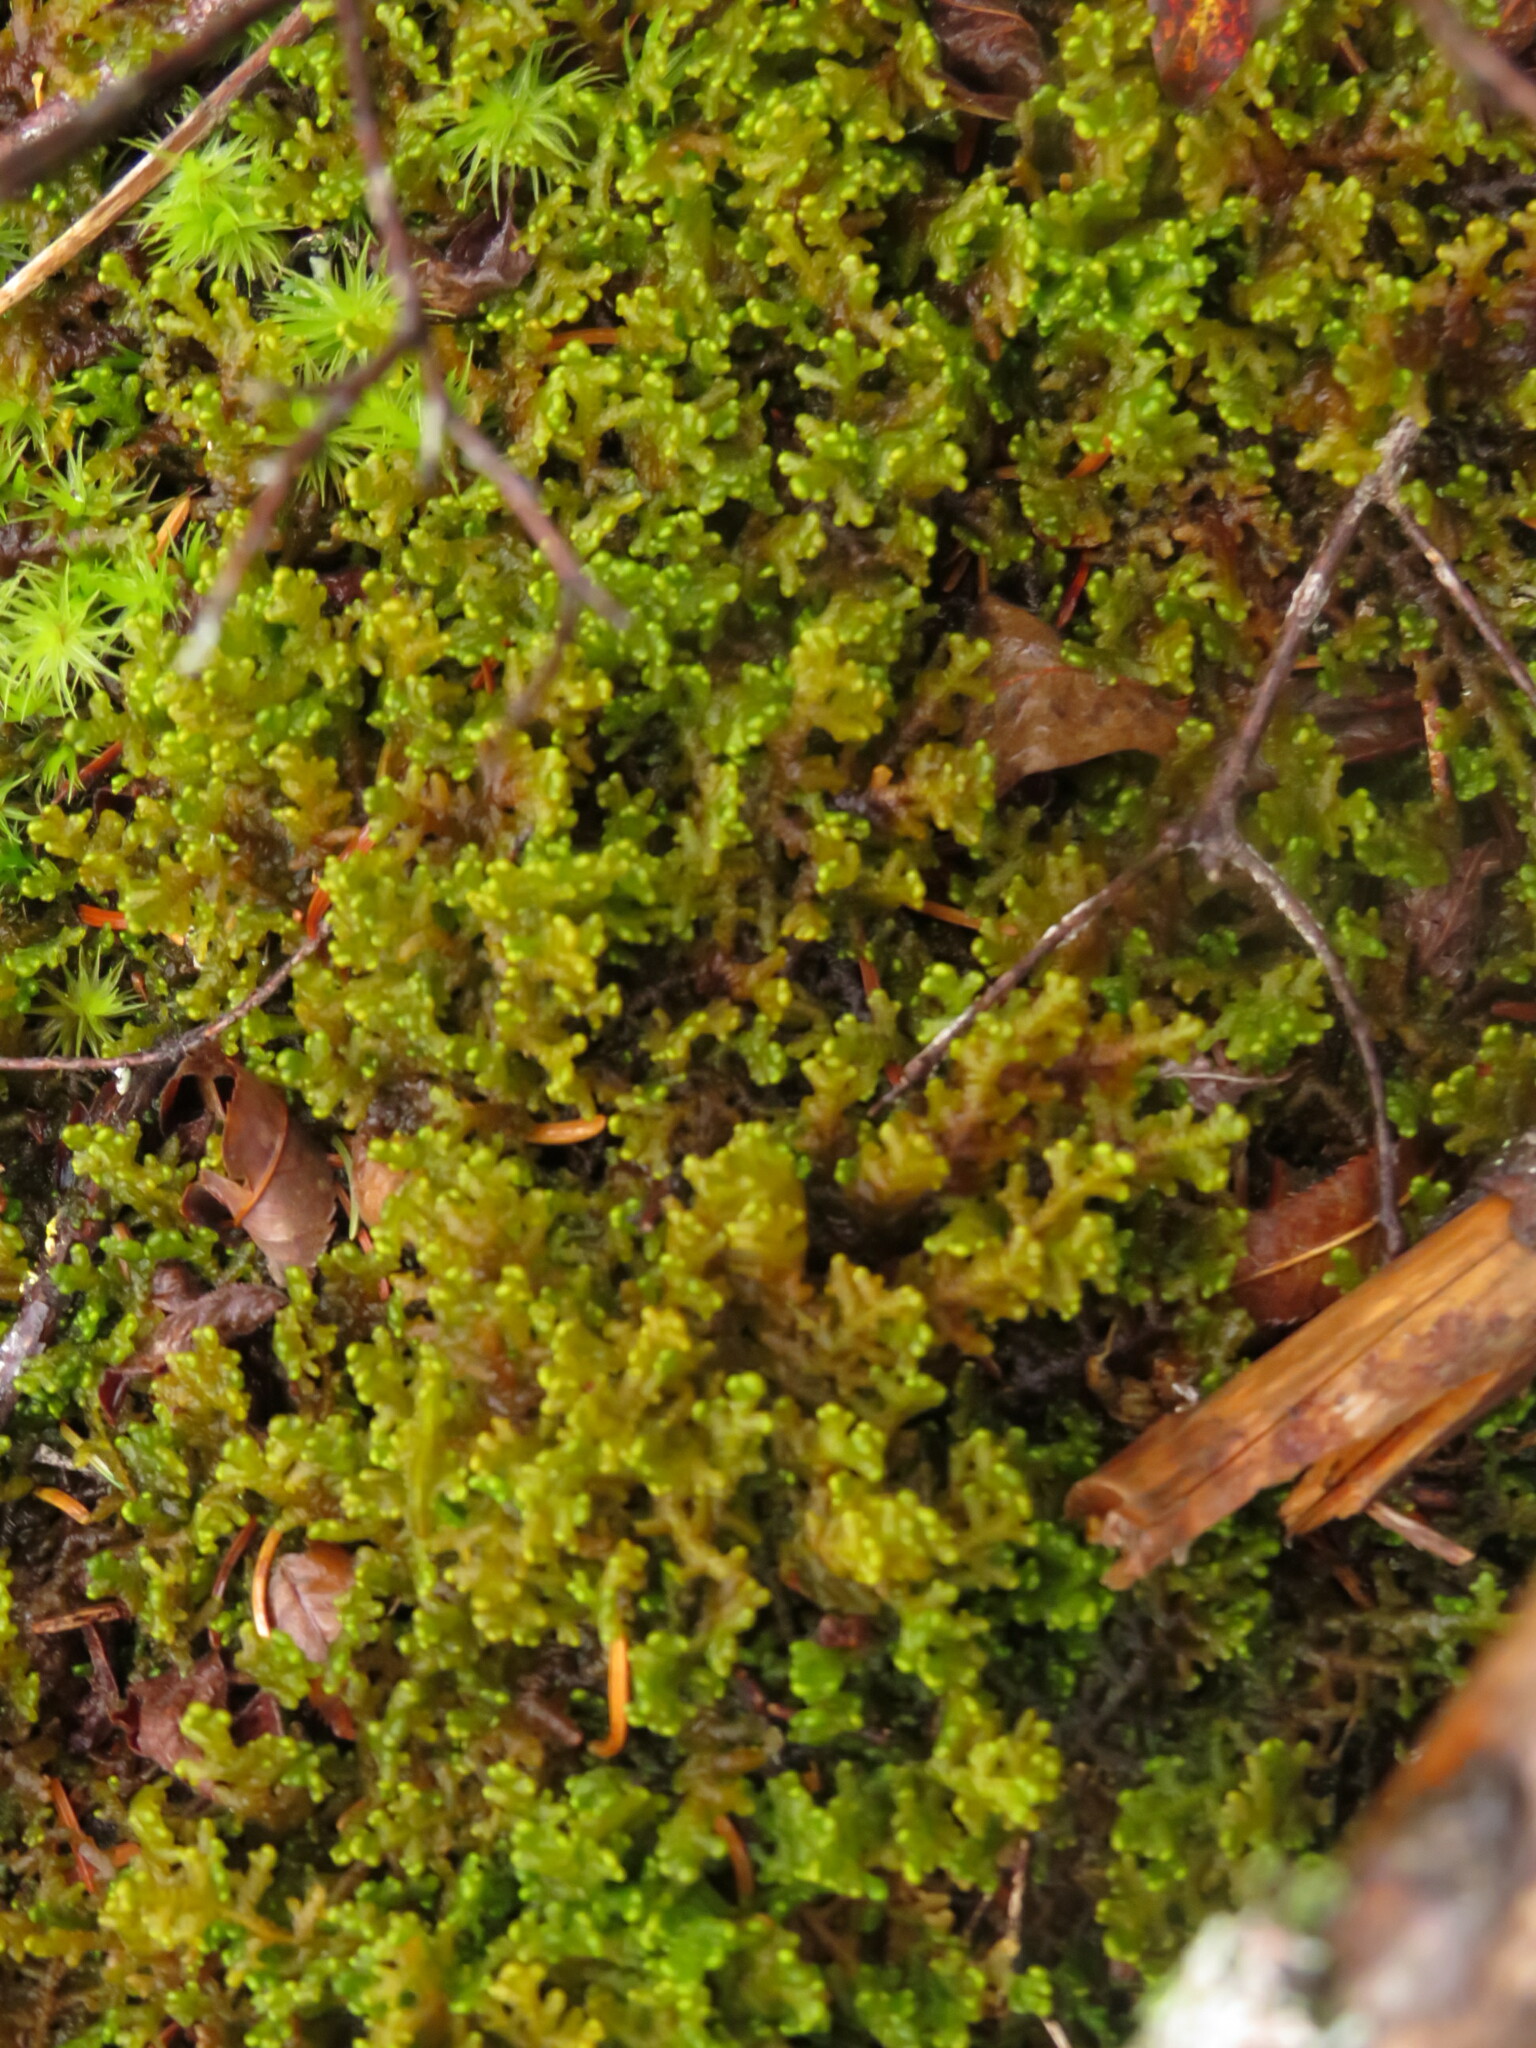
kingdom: Plantae
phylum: Marchantiophyta
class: Jungermanniopsida
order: Ptilidiales
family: Ptilidiaceae
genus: Ptilidium
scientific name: Ptilidium ciliare
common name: Ciliate fringewort
